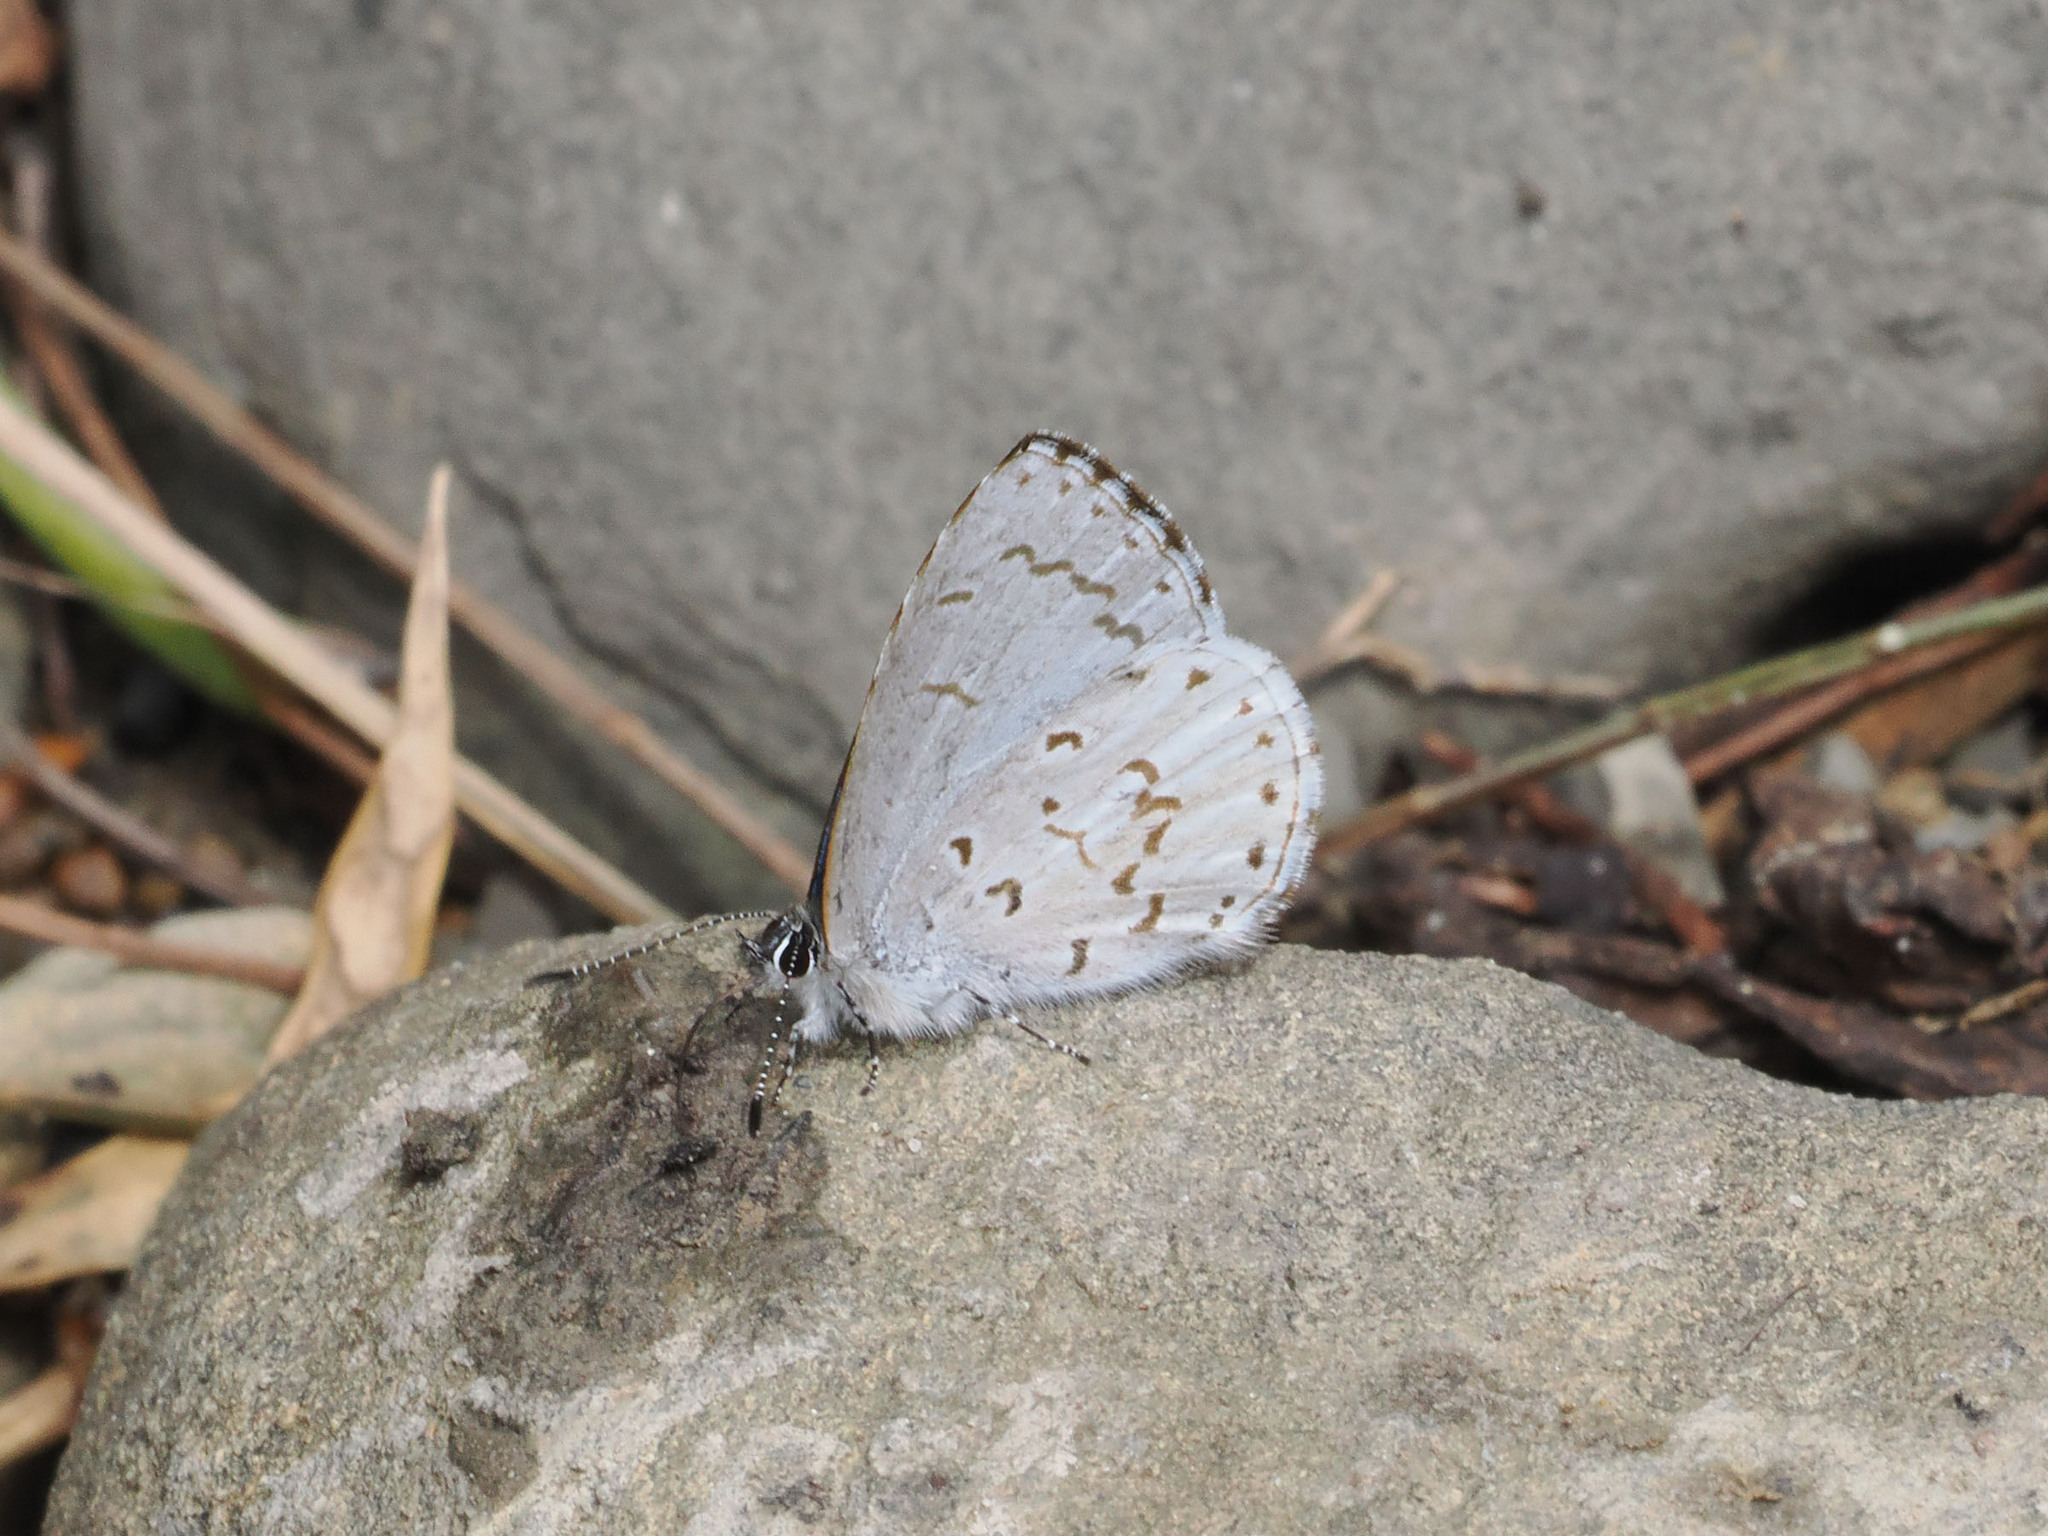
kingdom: Animalia
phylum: Arthropoda
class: Insecta
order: Lepidoptera
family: Lycaenidae
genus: Udara
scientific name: Udara drucei
